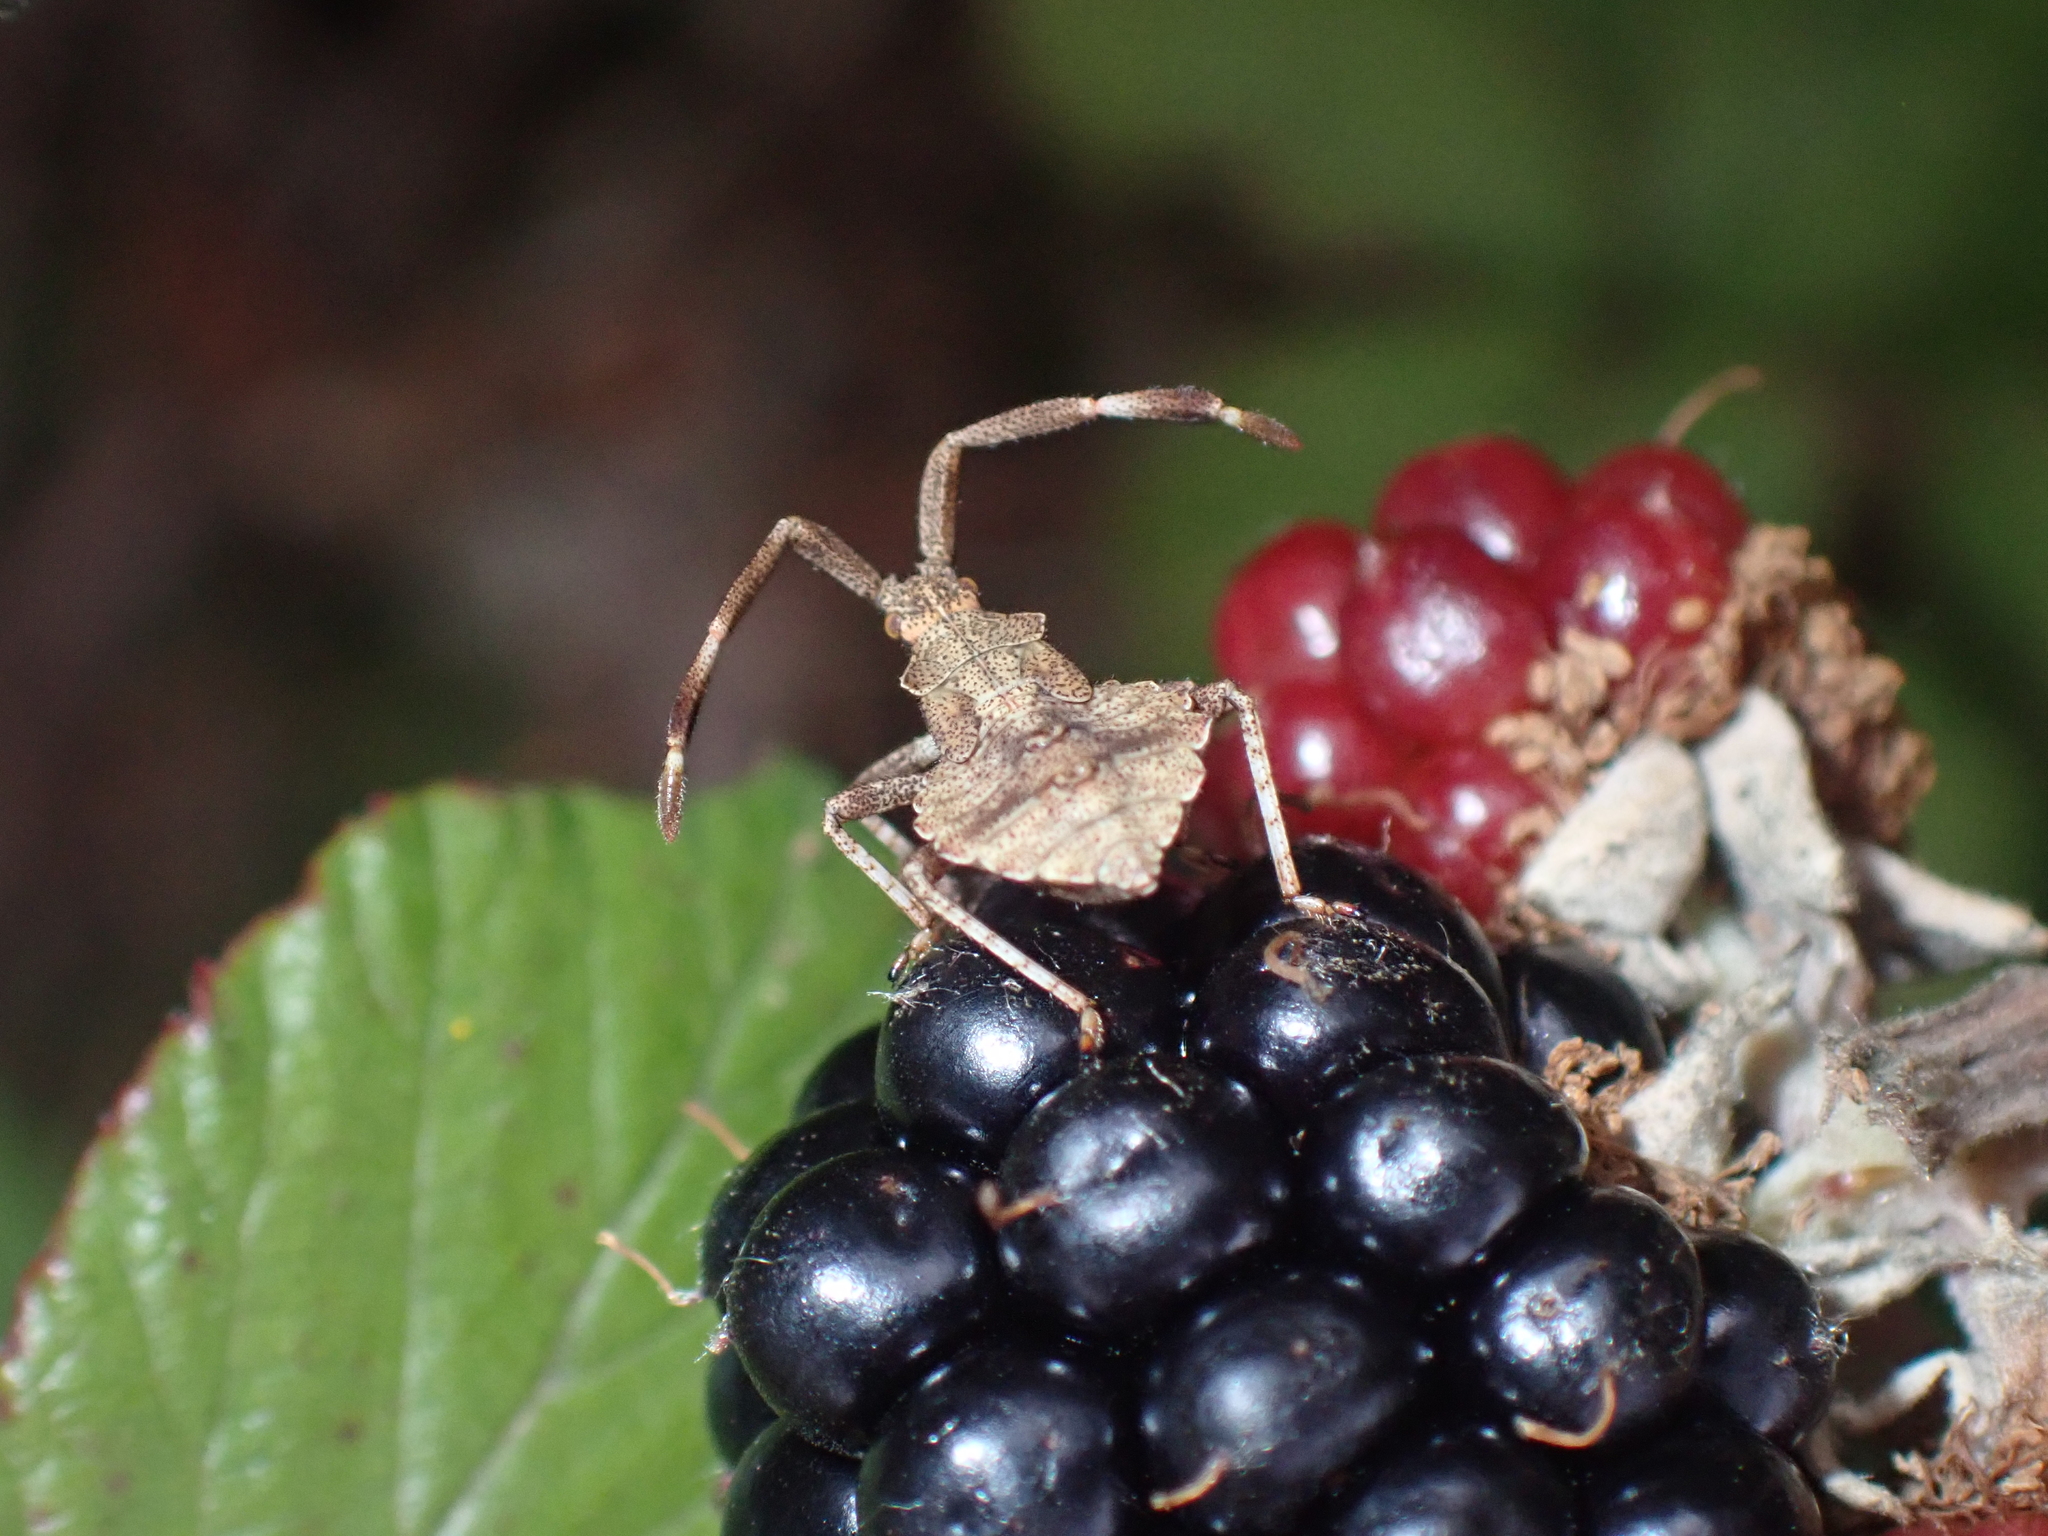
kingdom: Animalia
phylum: Arthropoda
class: Insecta
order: Hemiptera
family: Coreidae
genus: Coreus
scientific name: Coreus marginatus
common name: Dock bug
